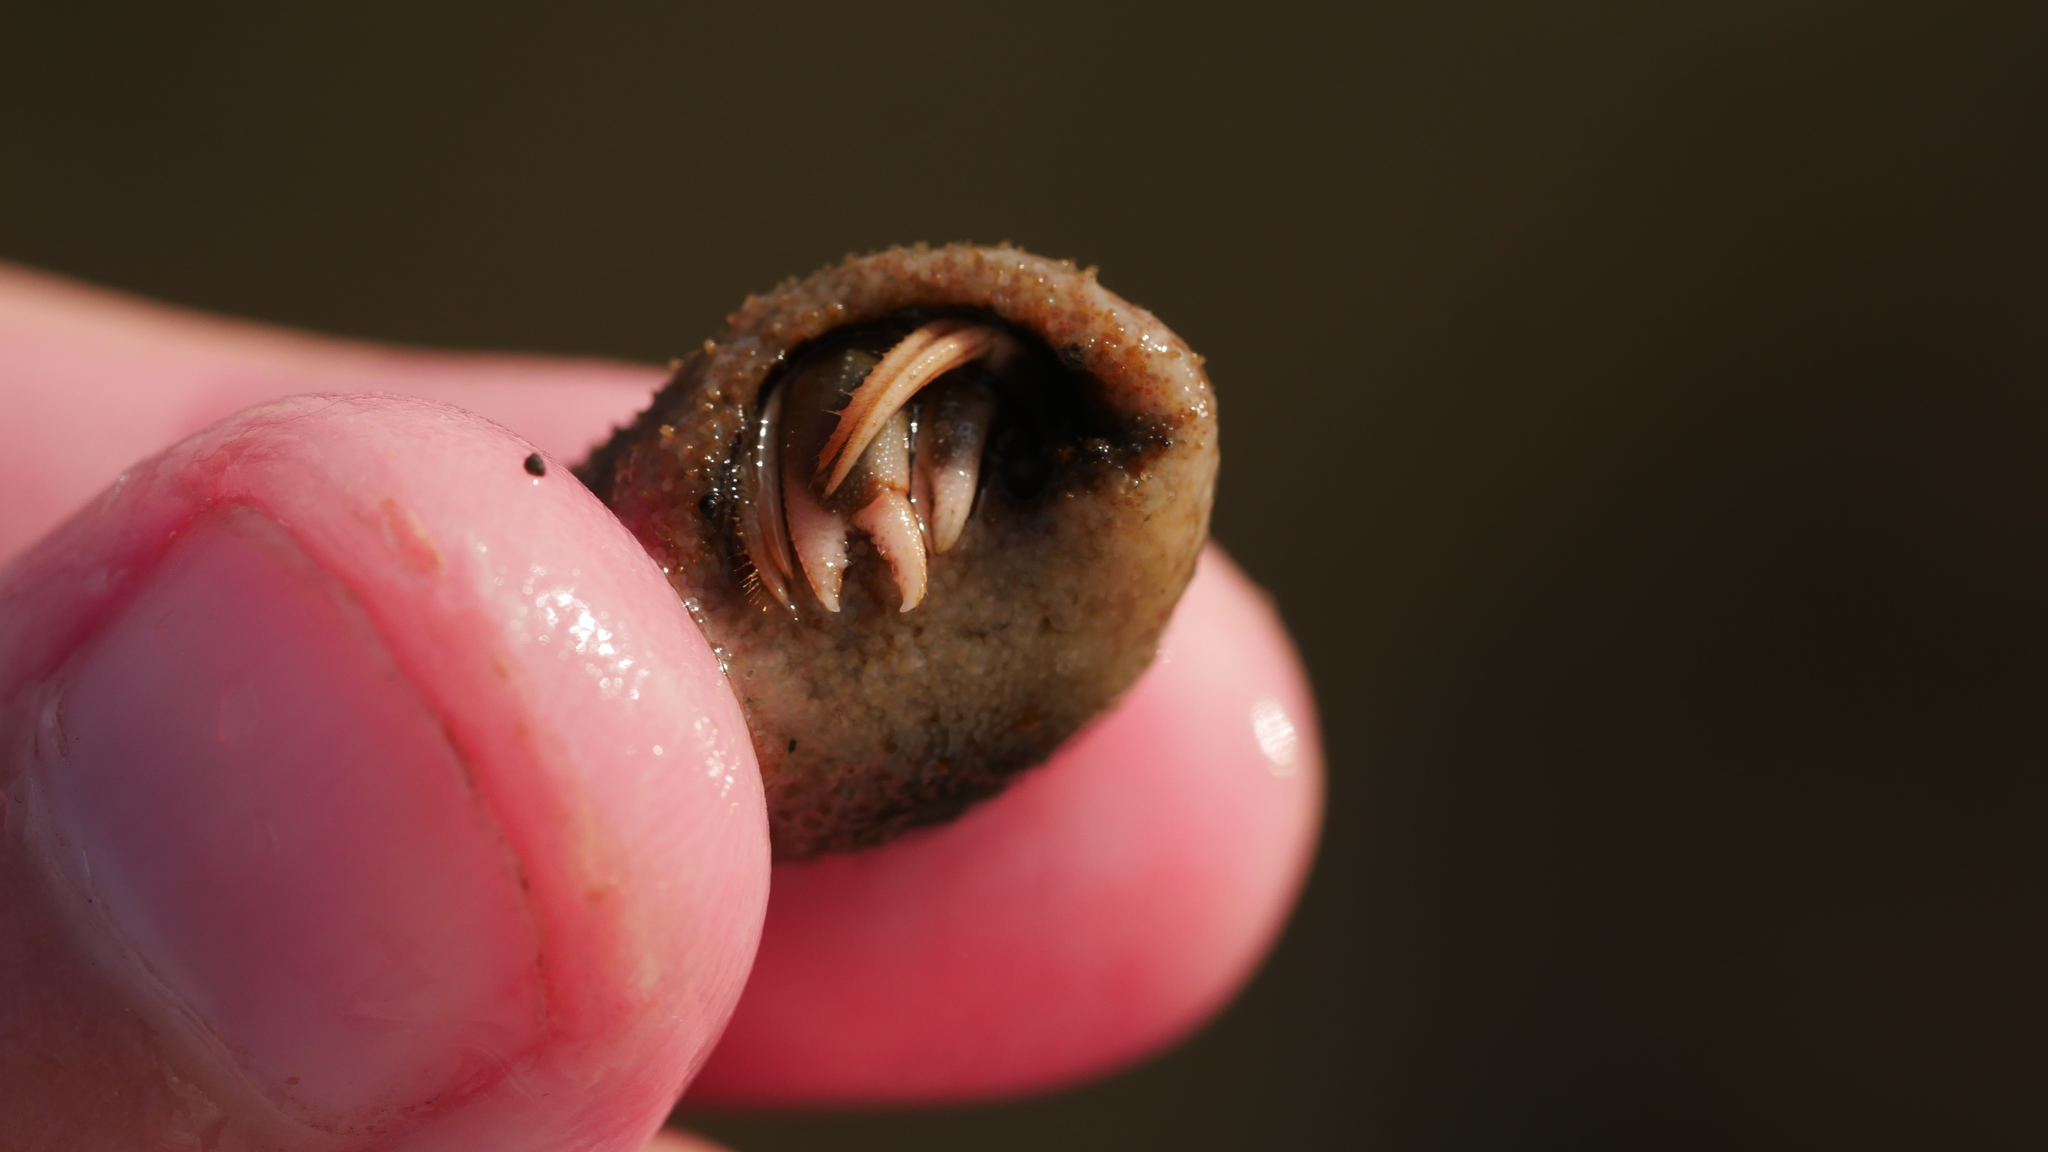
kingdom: Animalia
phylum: Arthropoda
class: Malacostraca
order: Decapoda
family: Paguridae
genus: Pagurus
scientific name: Pagurus longicarpus
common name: Long-armed hermit crab
